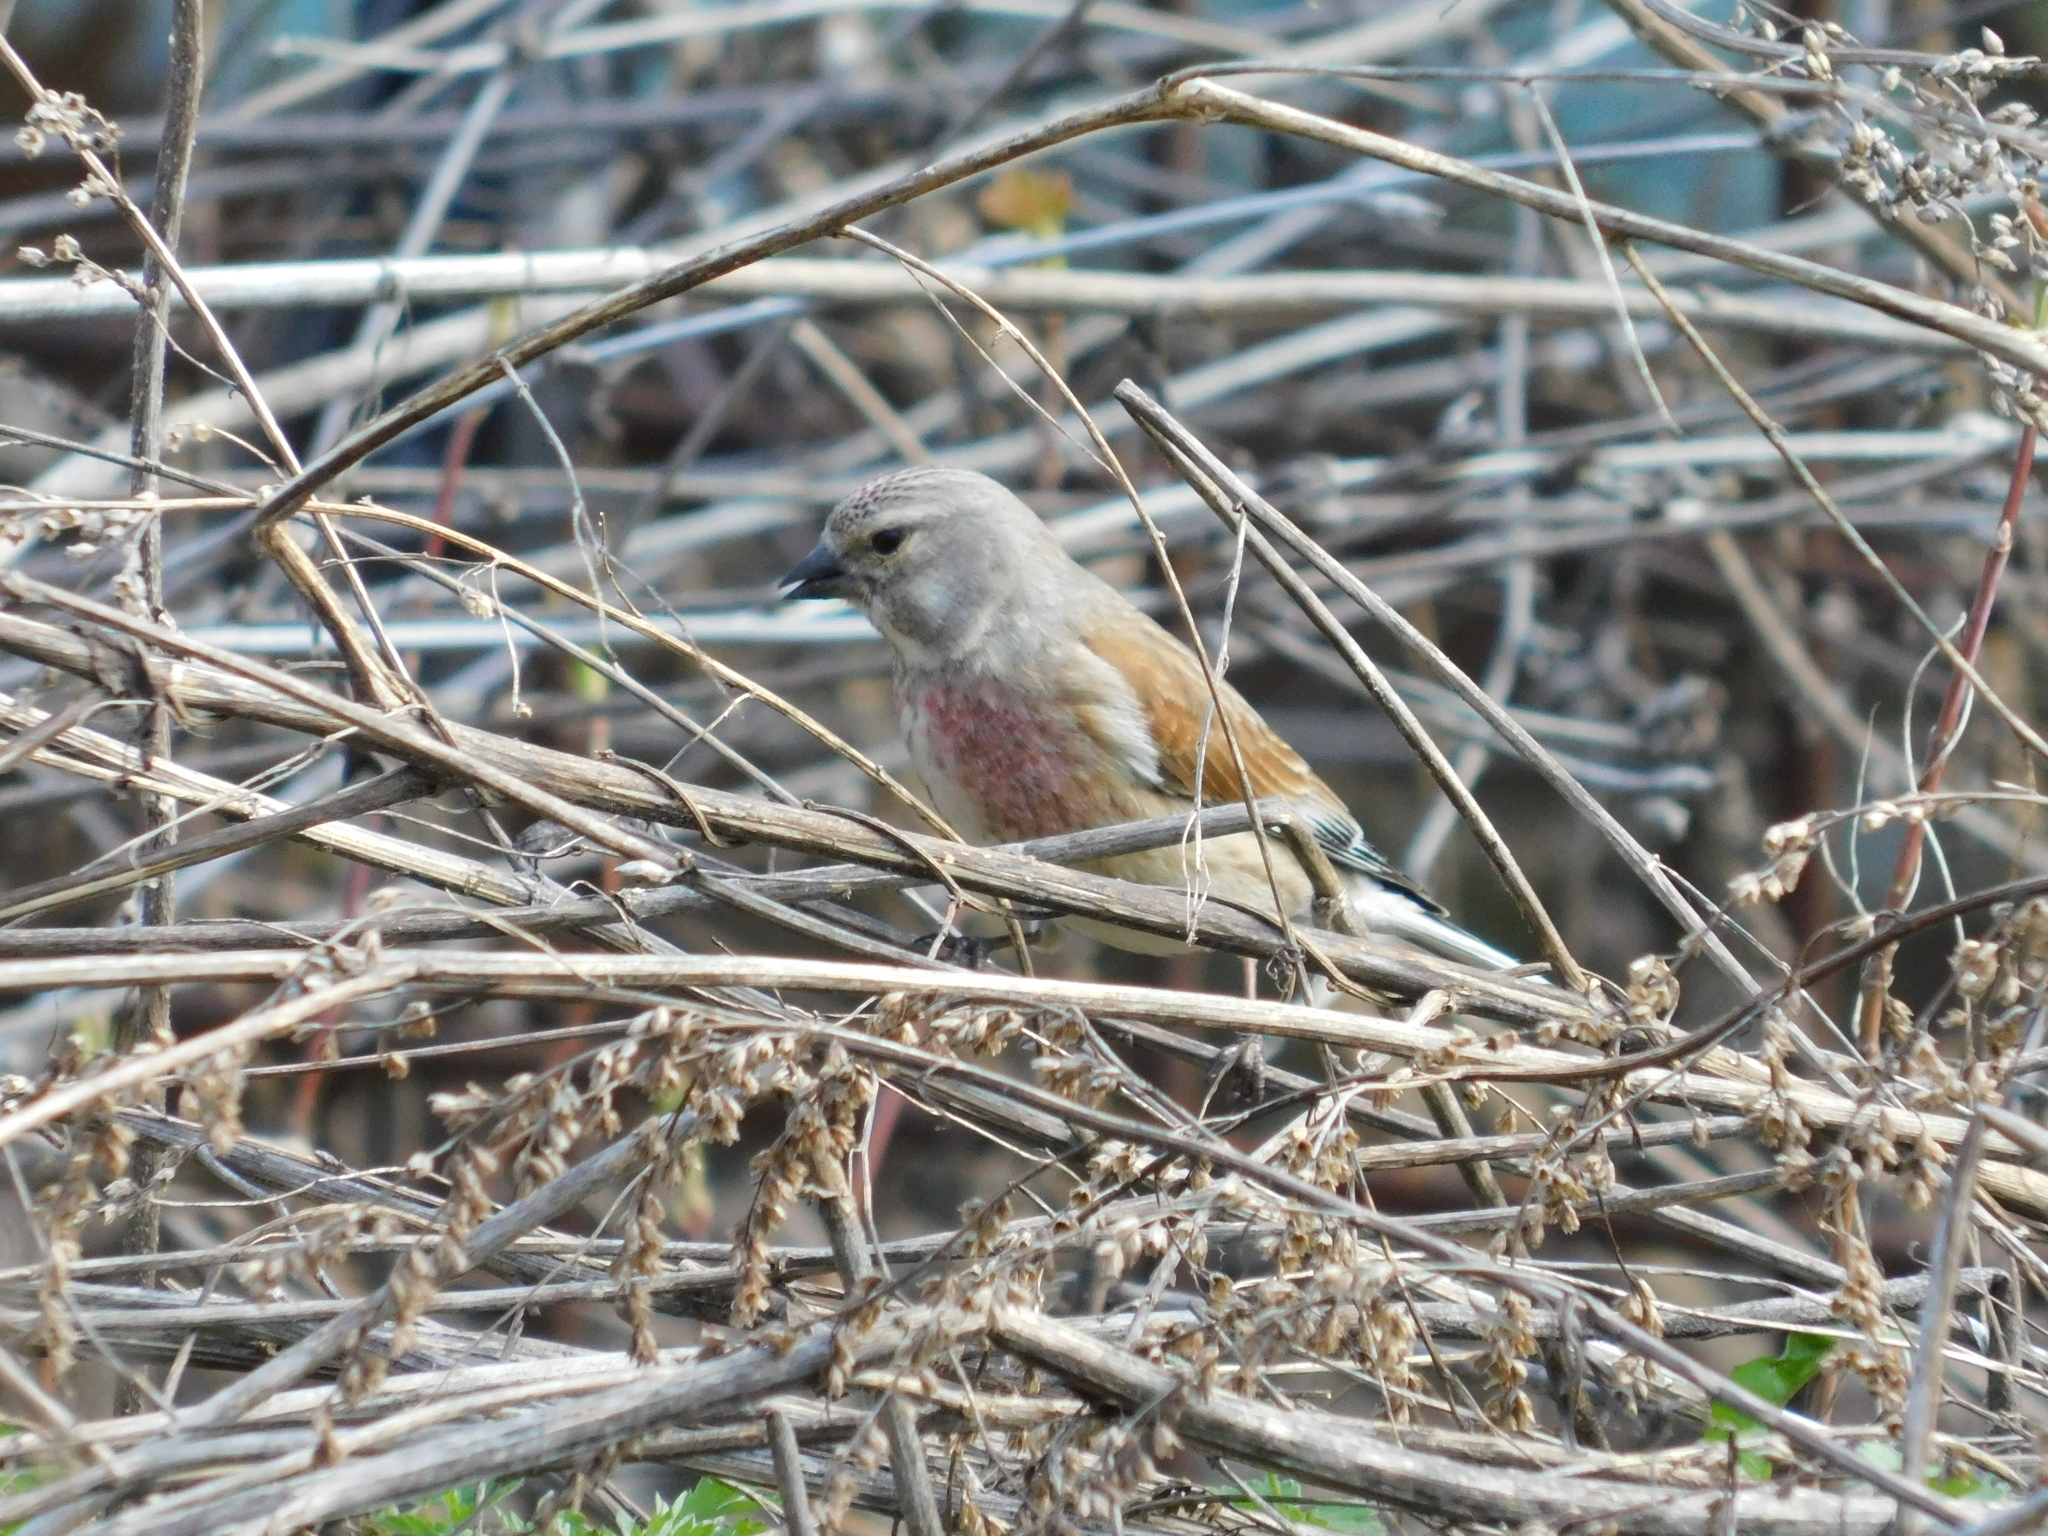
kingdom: Animalia
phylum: Chordata
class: Aves
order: Passeriformes
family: Fringillidae
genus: Linaria
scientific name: Linaria cannabina
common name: Common linnet
